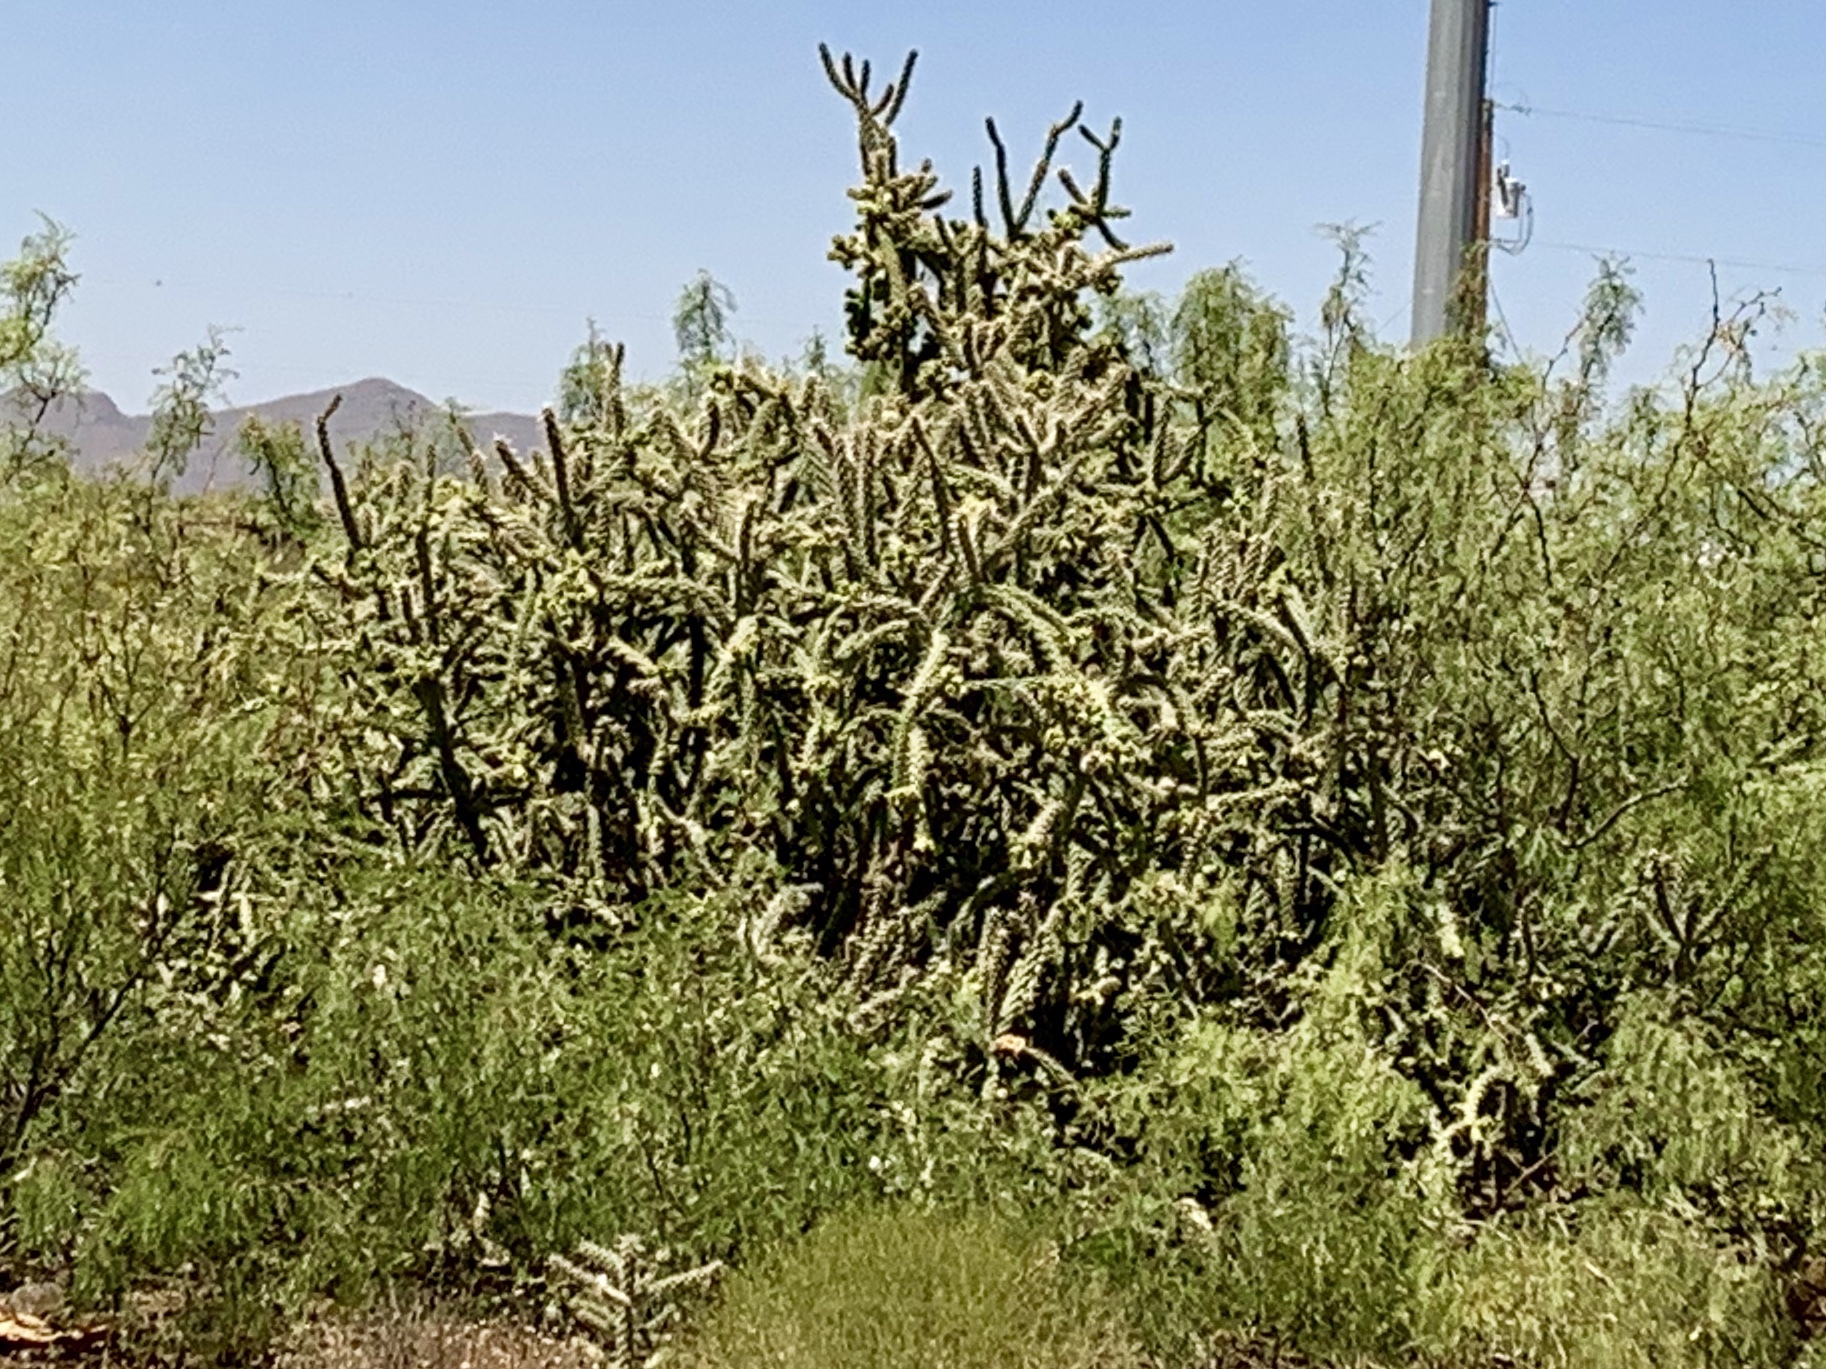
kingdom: Plantae
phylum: Tracheophyta
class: Magnoliopsida
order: Caryophyllales
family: Cactaceae
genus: Cylindropuntia
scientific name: Cylindropuntia imbricata
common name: Candelabrum cactus
